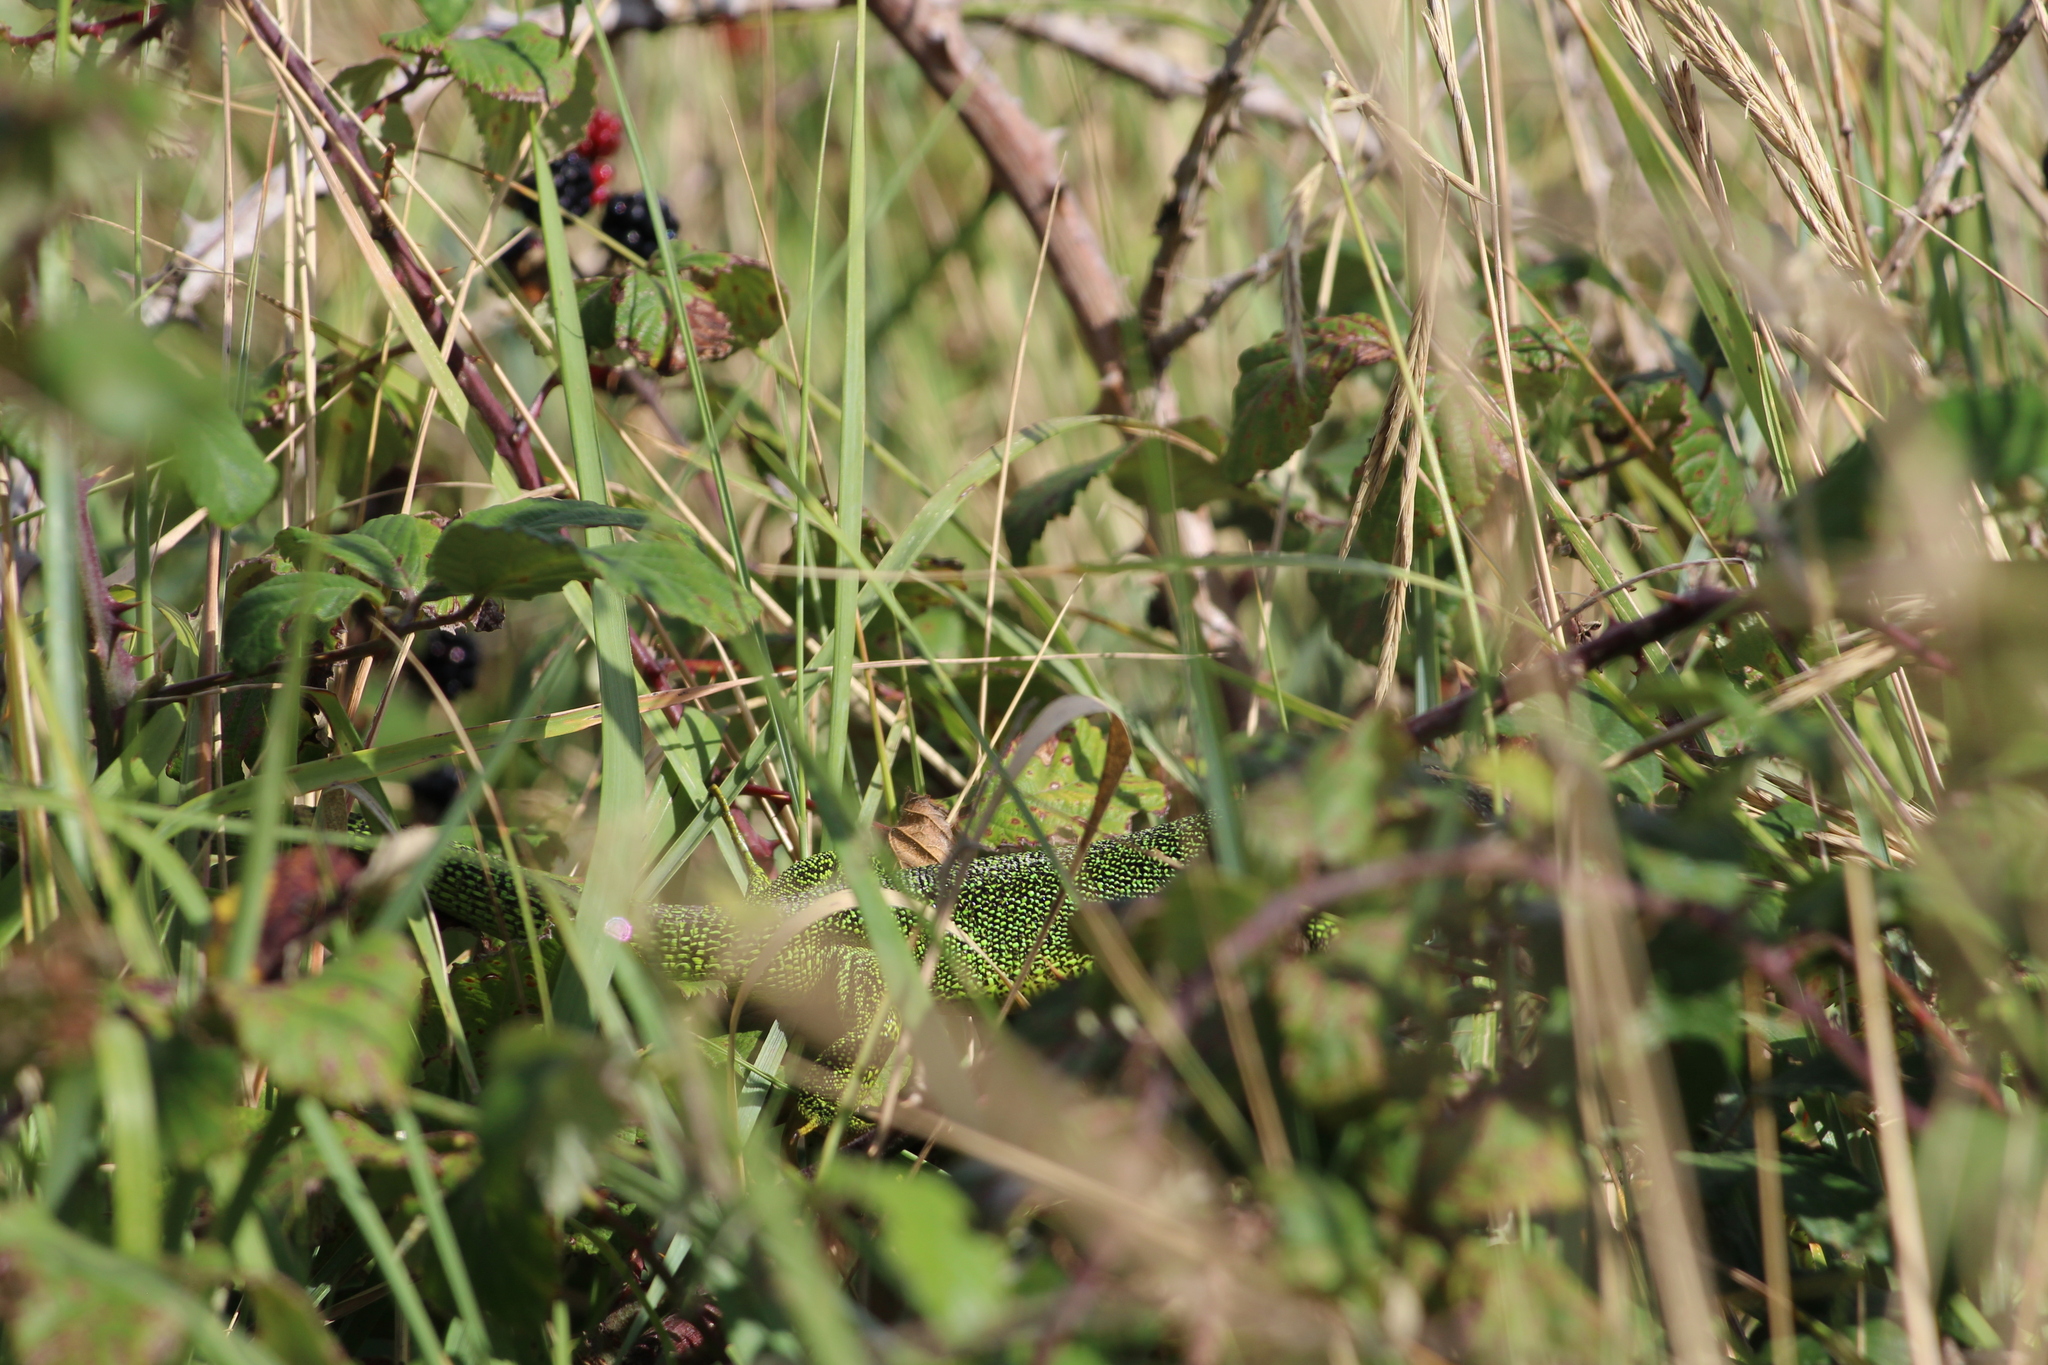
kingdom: Animalia
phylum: Chordata
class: Squamata
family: Lacertidae
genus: Lacerta
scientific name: Lacerta bilineata
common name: Western green lizard
